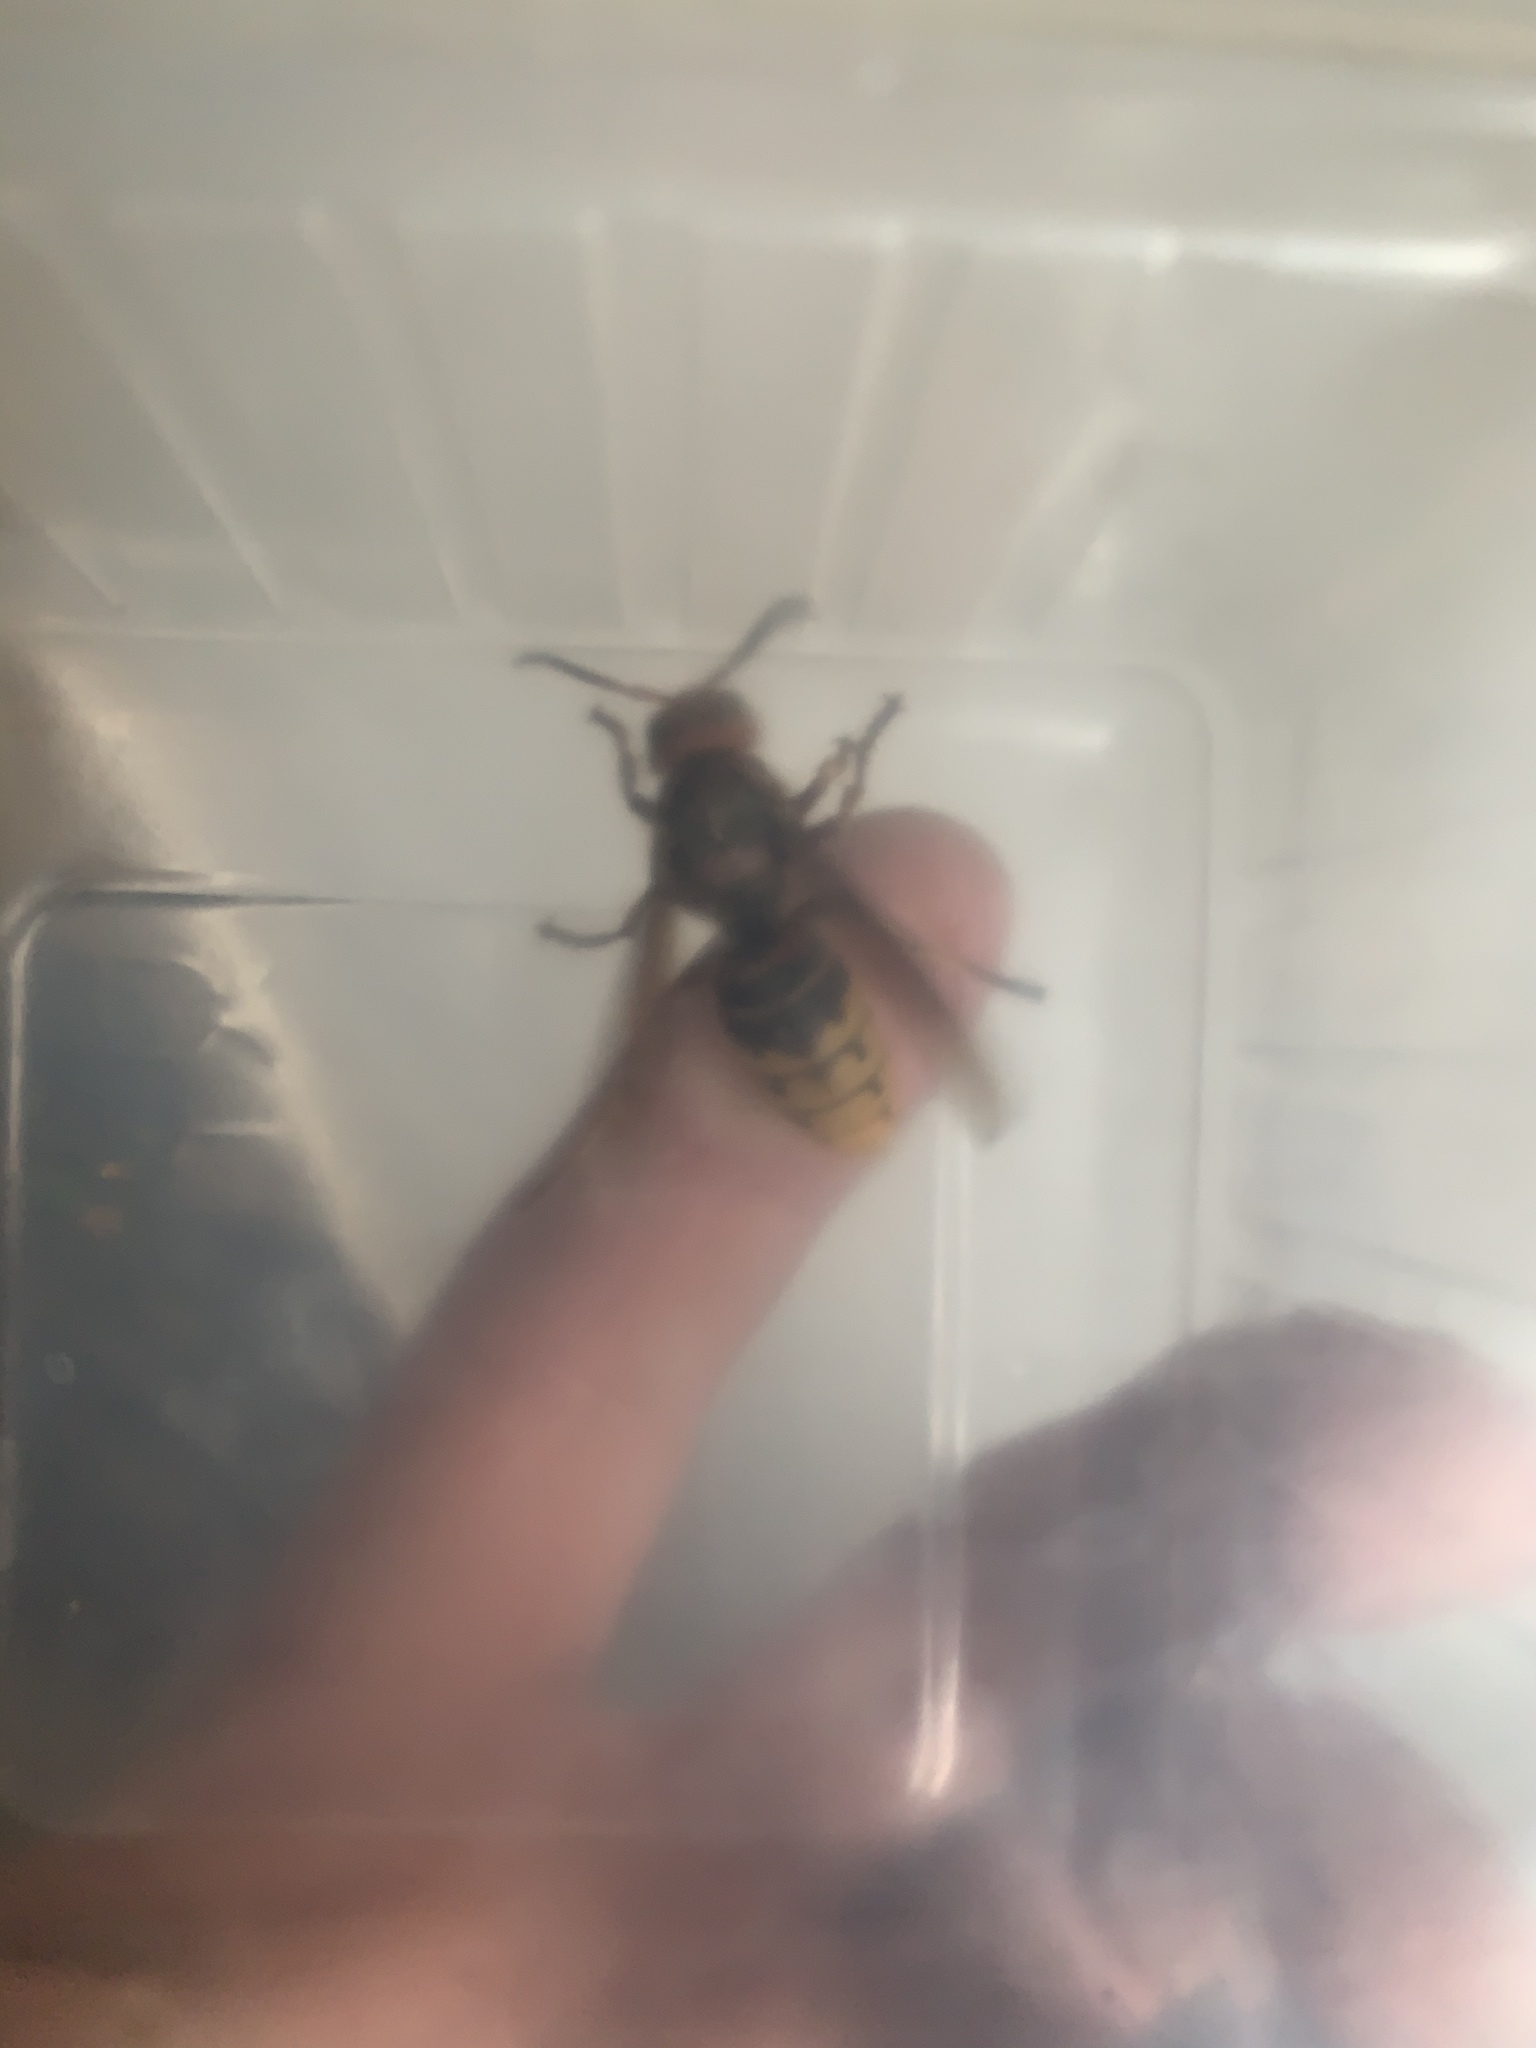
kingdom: Animalia
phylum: Arthropoda
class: Insecta
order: Hymenoptera
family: Vespidae
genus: Vespa
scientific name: Vespa crabro
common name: Hornet
